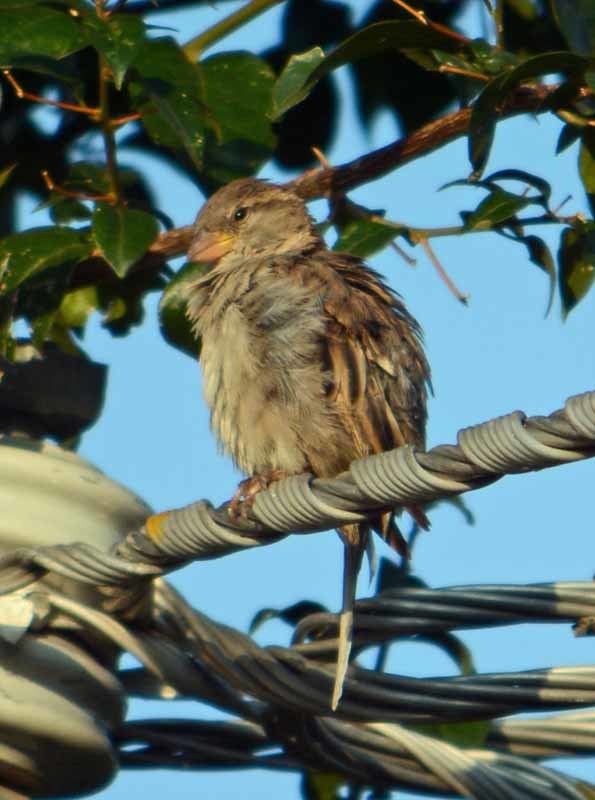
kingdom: Animalia
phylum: Chordata
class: Aves
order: Passeriformes
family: Passeridae
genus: Passer
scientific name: Passer domesticus
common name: House sparrow
